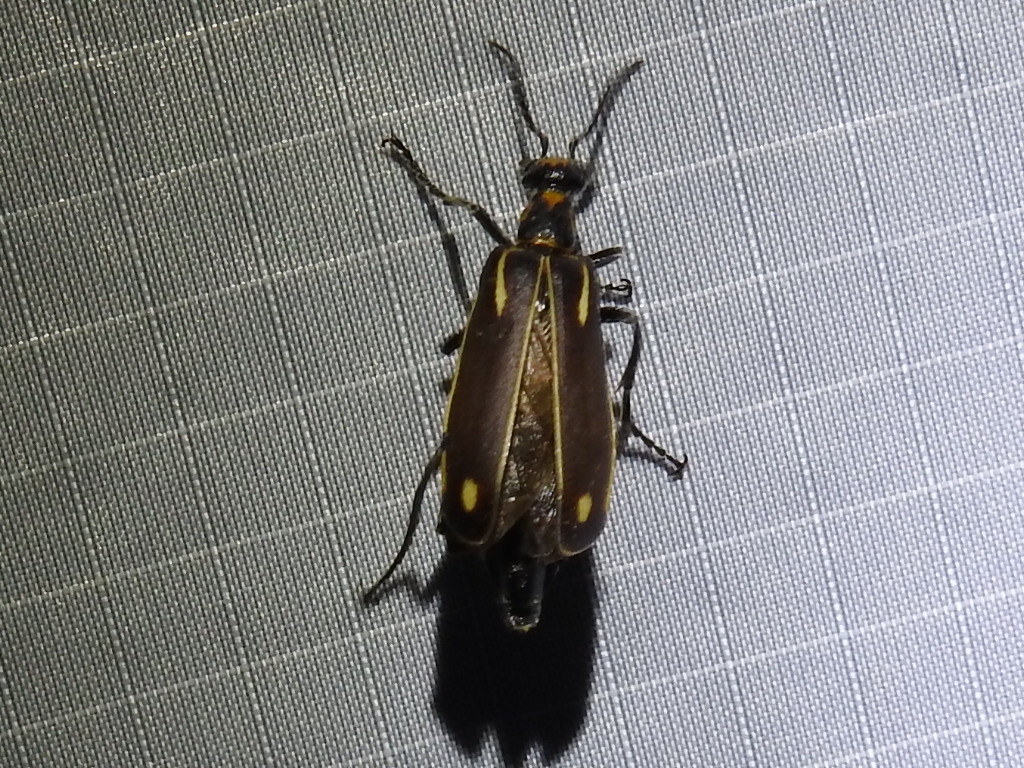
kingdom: Animalia
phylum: Arthropoda
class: Insecta
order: Coleoptera
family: Meloidae
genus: Pyrota
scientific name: Pyrota insulata
